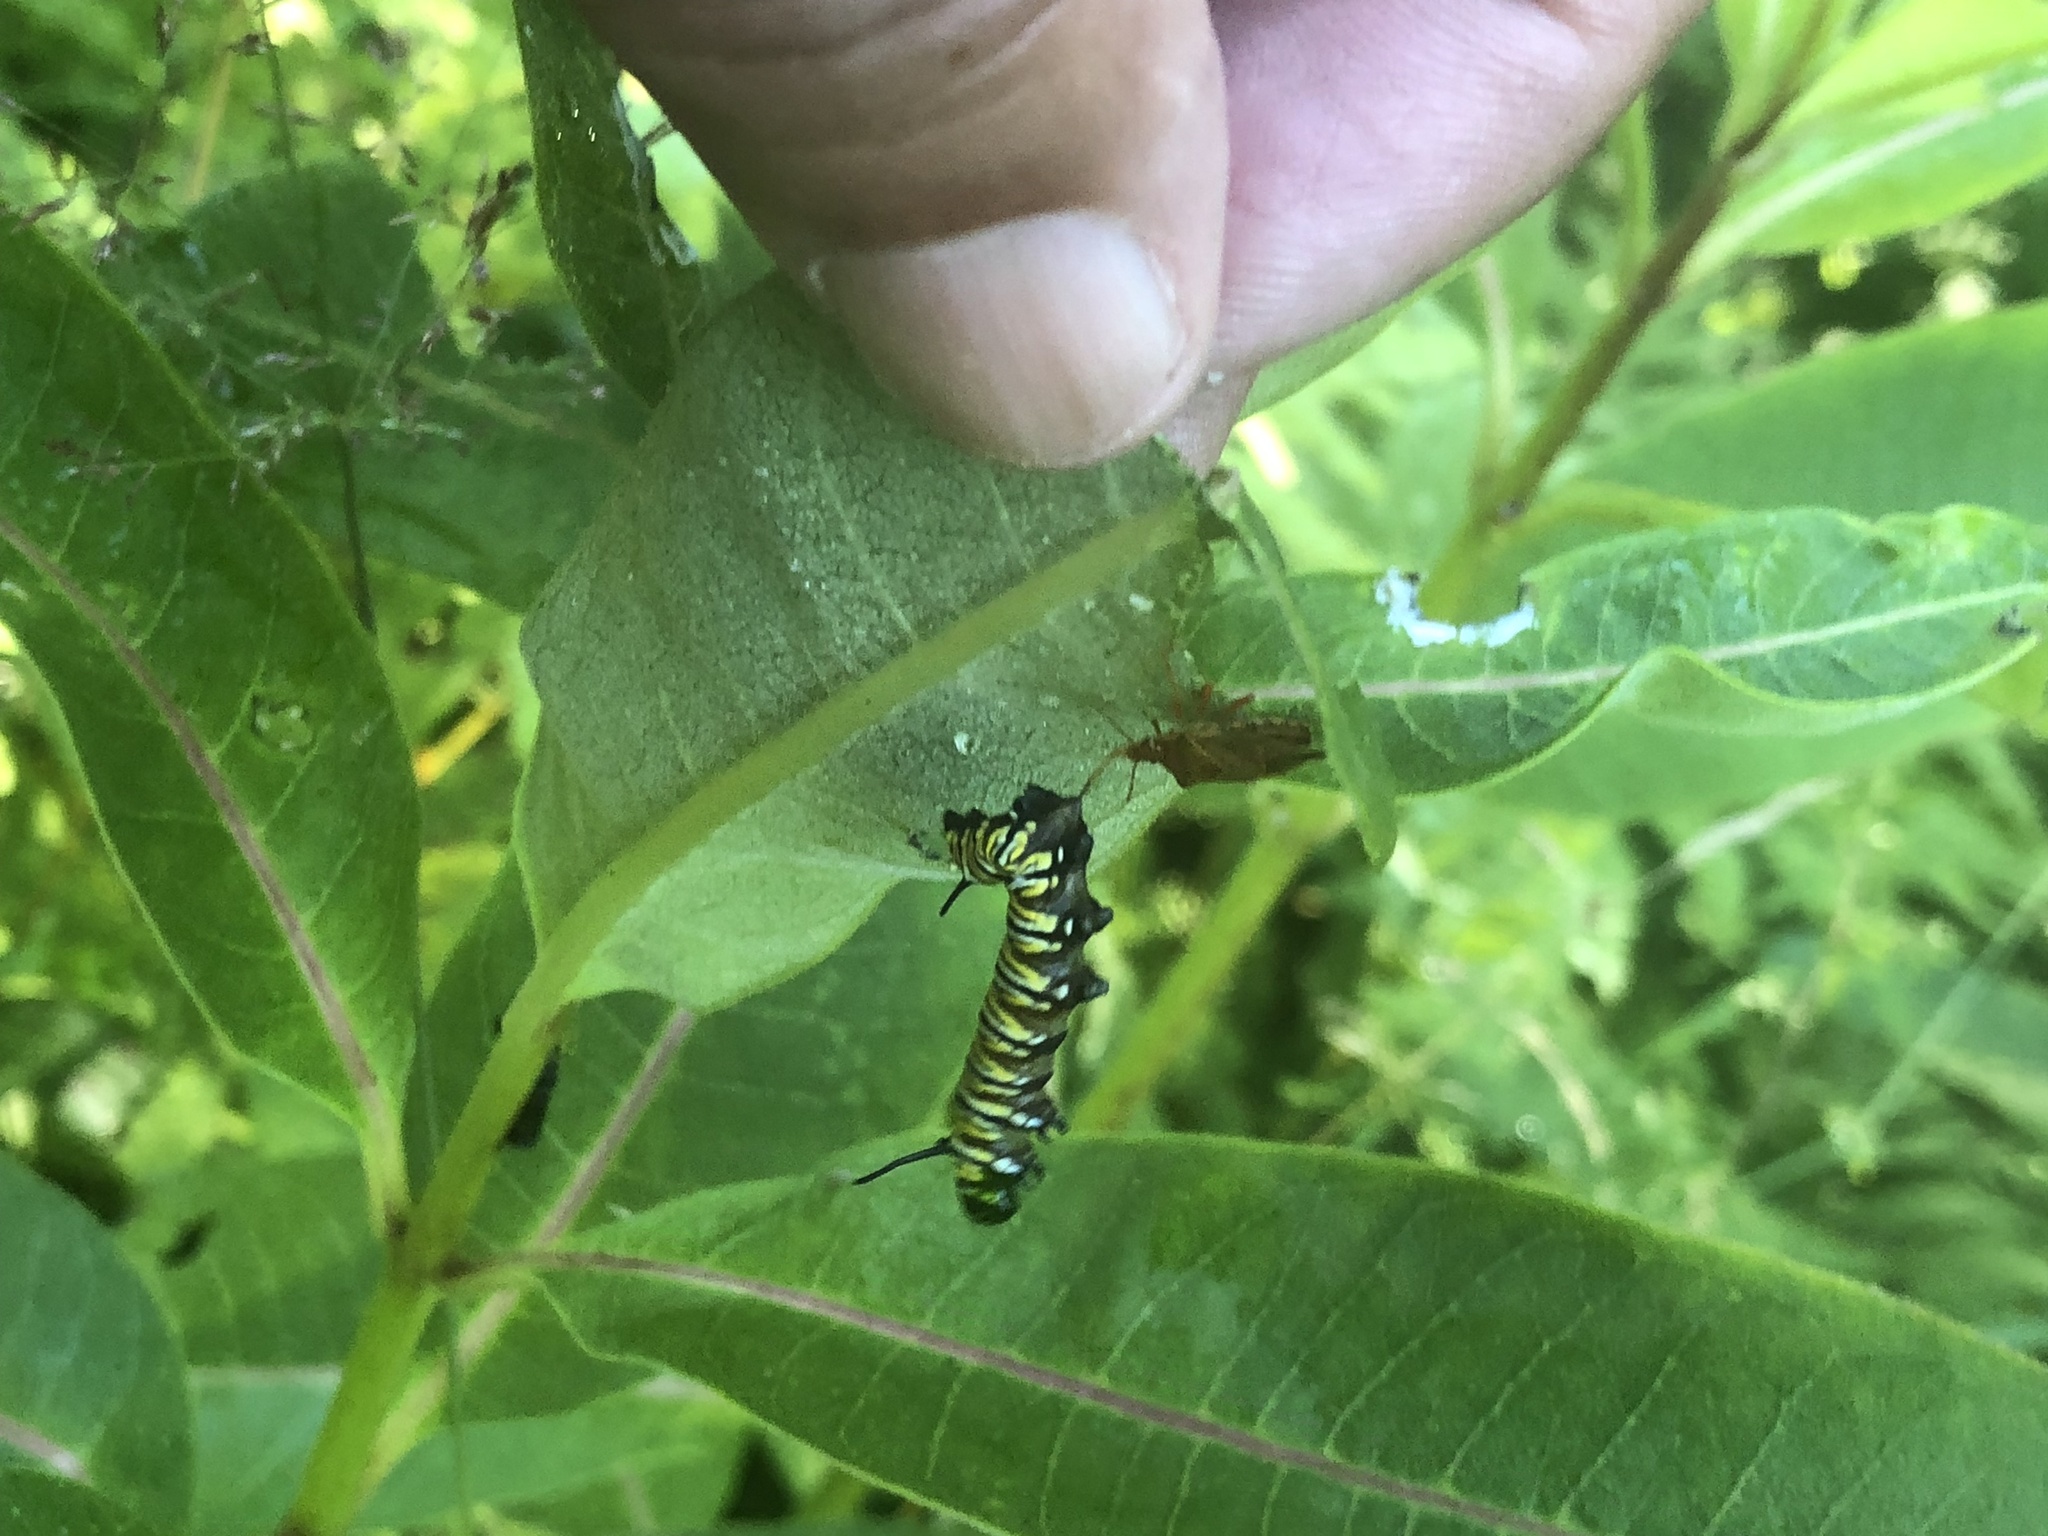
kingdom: Animalia
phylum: Arthropoda
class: Insecta
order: Lepidoptera
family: Nymphalidae
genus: Danaus
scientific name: Danaus plexippus
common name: Monarch
